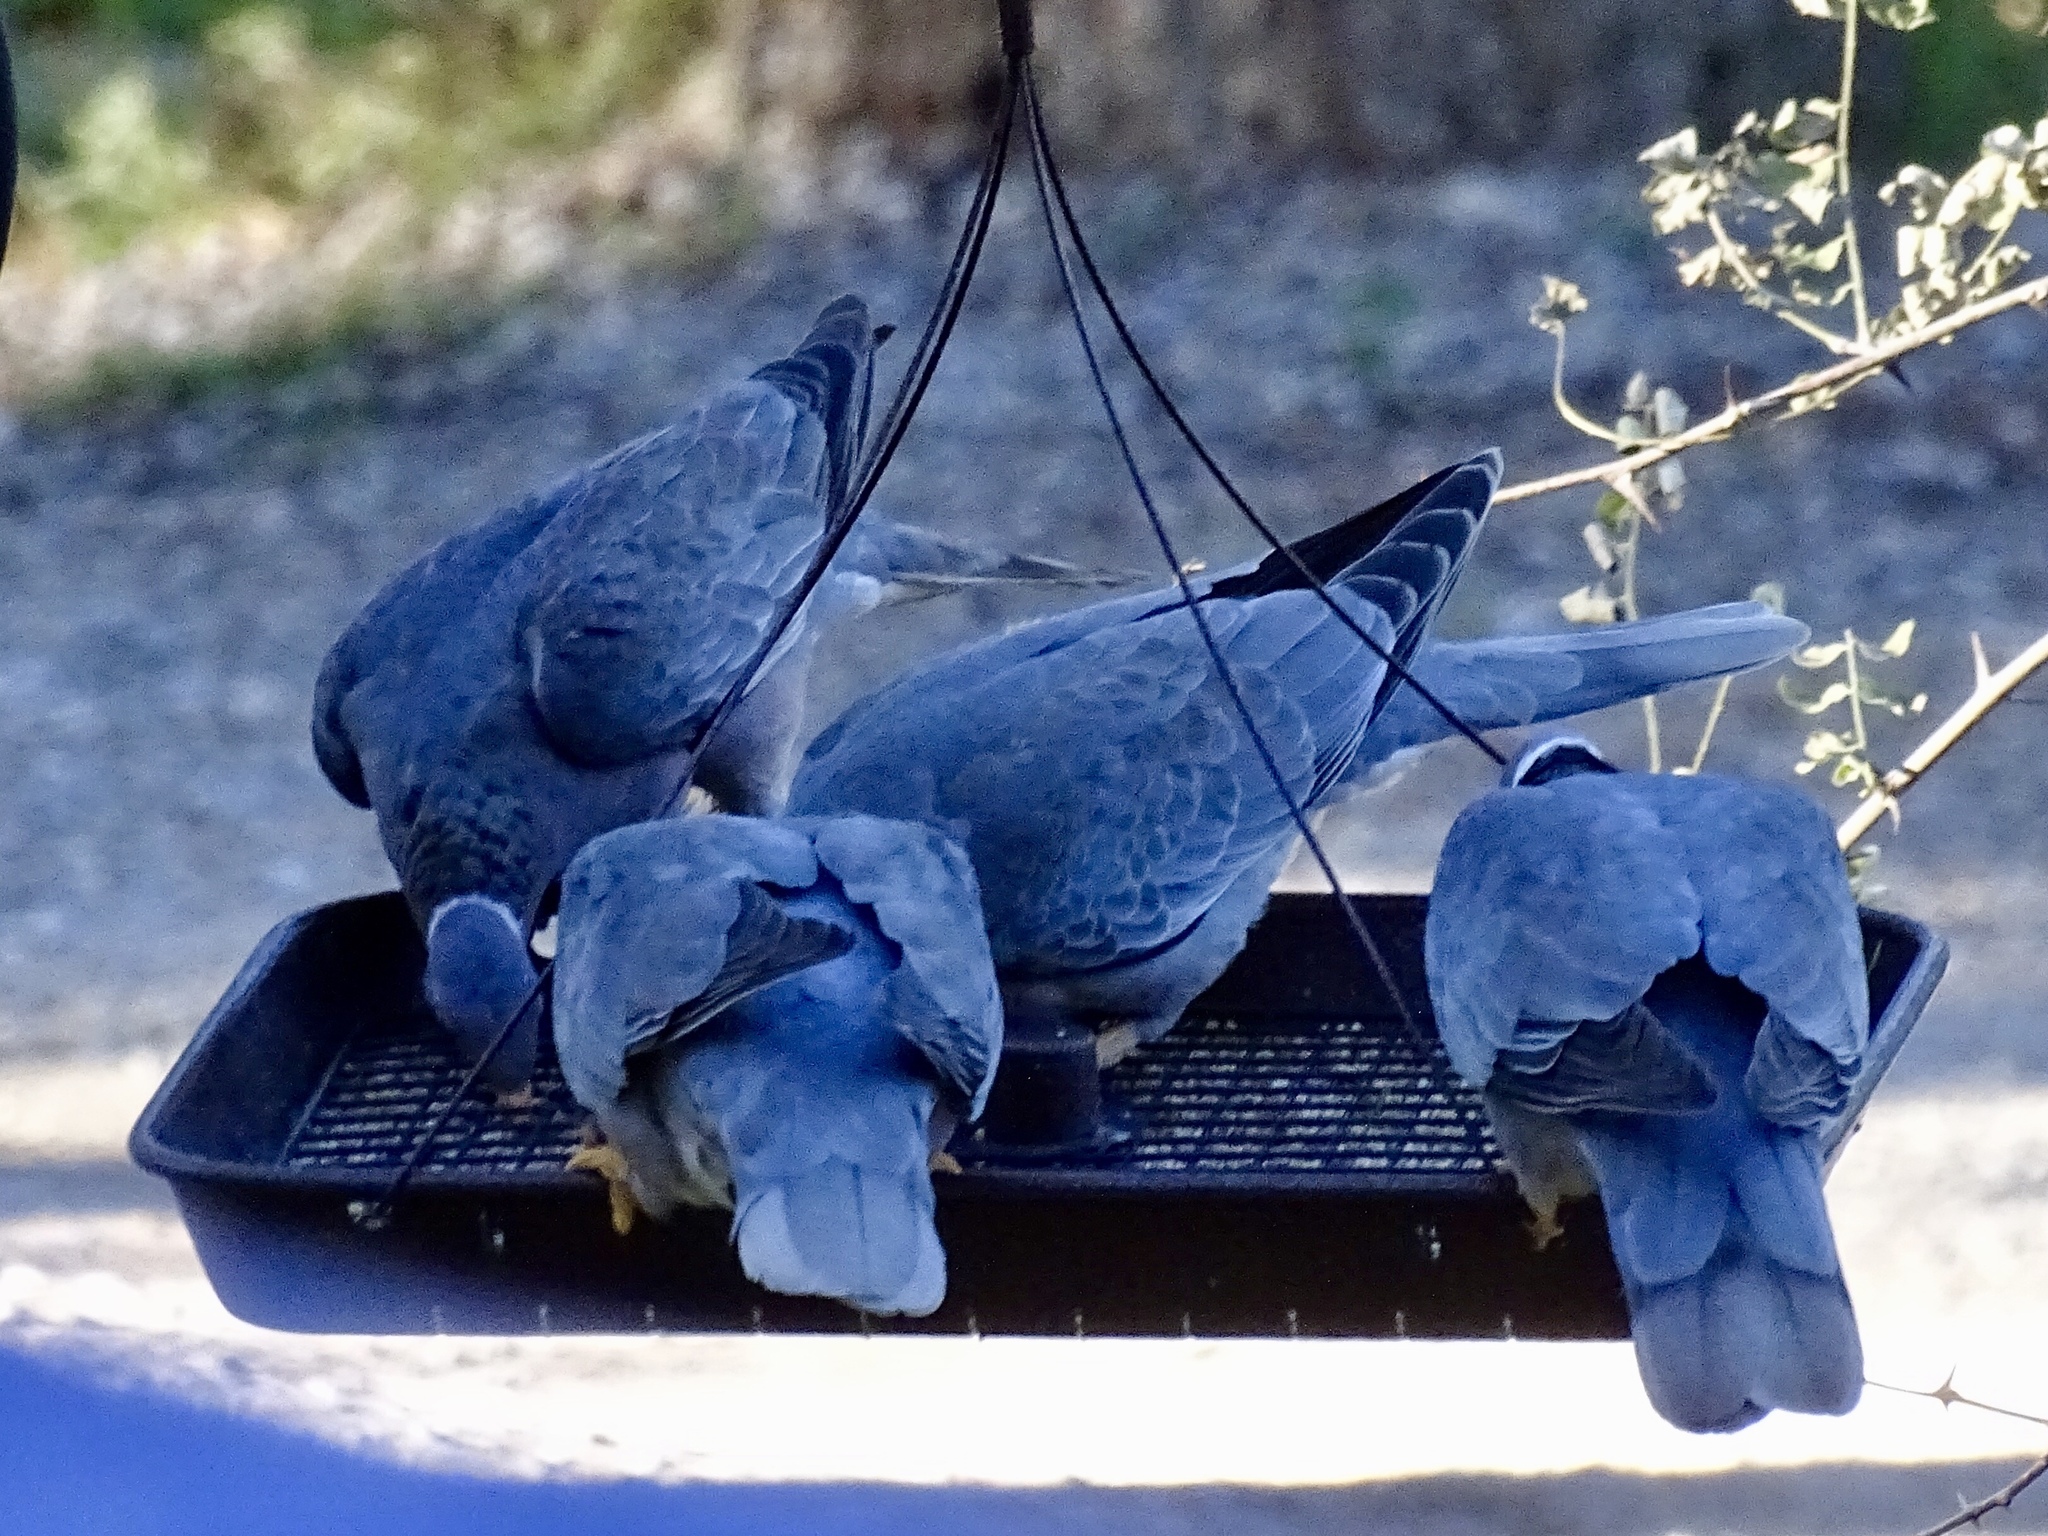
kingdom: Animalia
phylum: Chordata
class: Aves
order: Columbiformes
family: Columbidae
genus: Patagioenas
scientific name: Patagioenas fasciata
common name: Band-tailed pigeon
